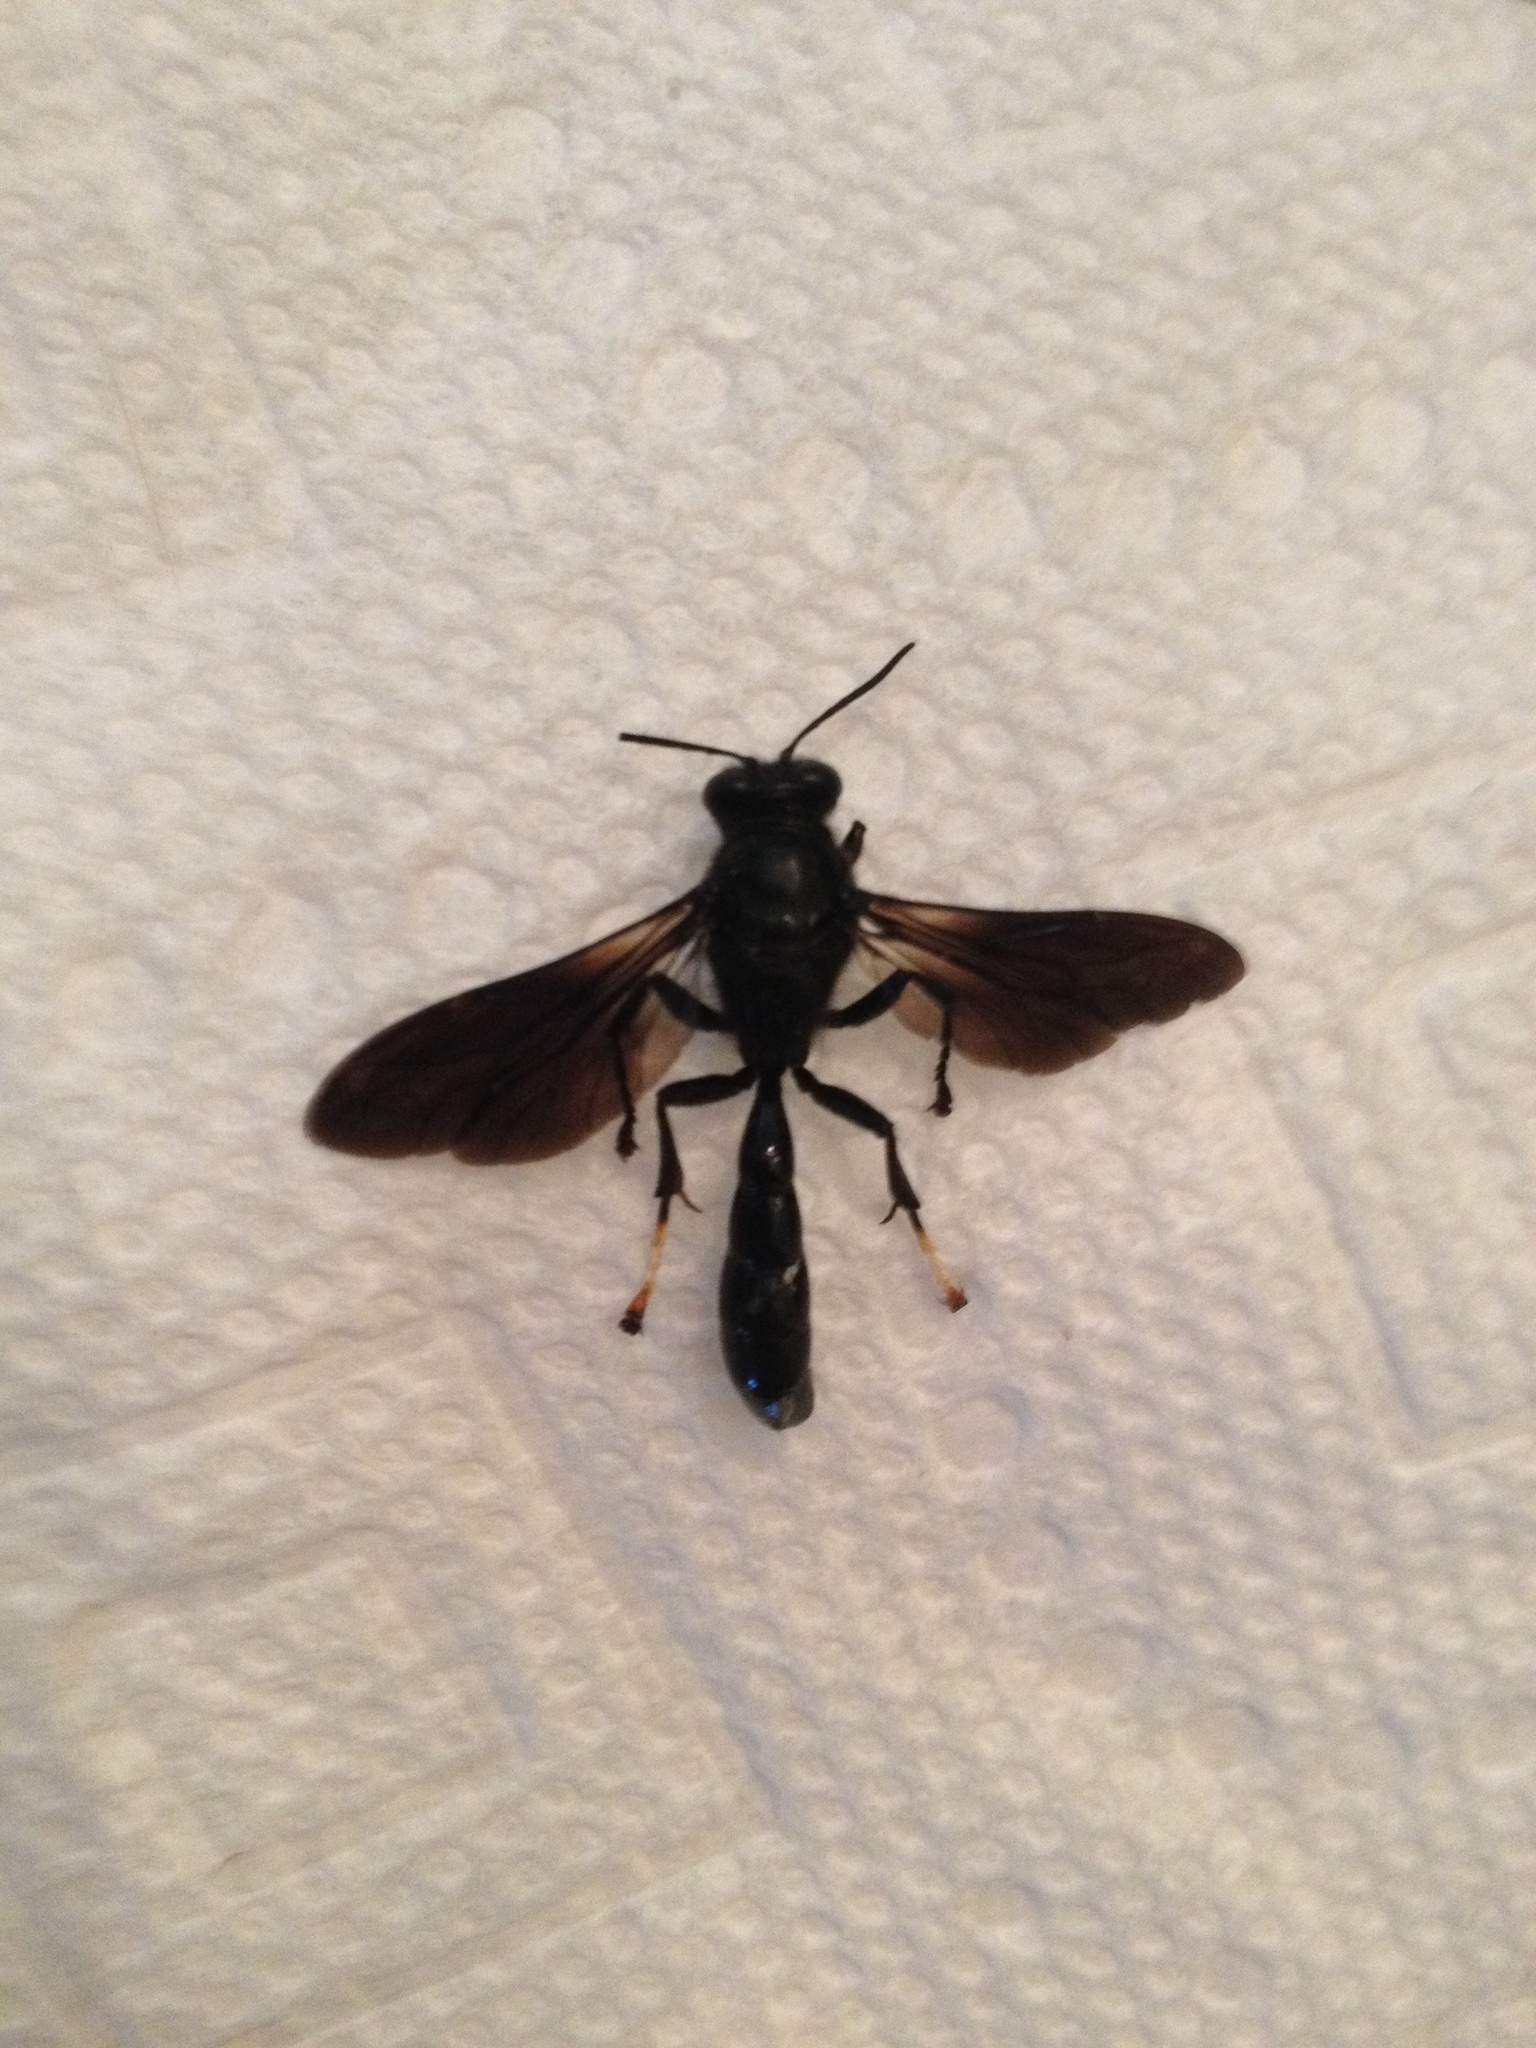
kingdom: Animalia
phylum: Arthropoda
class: Insecta
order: Hymenoptera
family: Crabronidae
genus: Trypoxylon
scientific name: Trypoxylon politum
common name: Organ-pipe mud-dauber wasp
